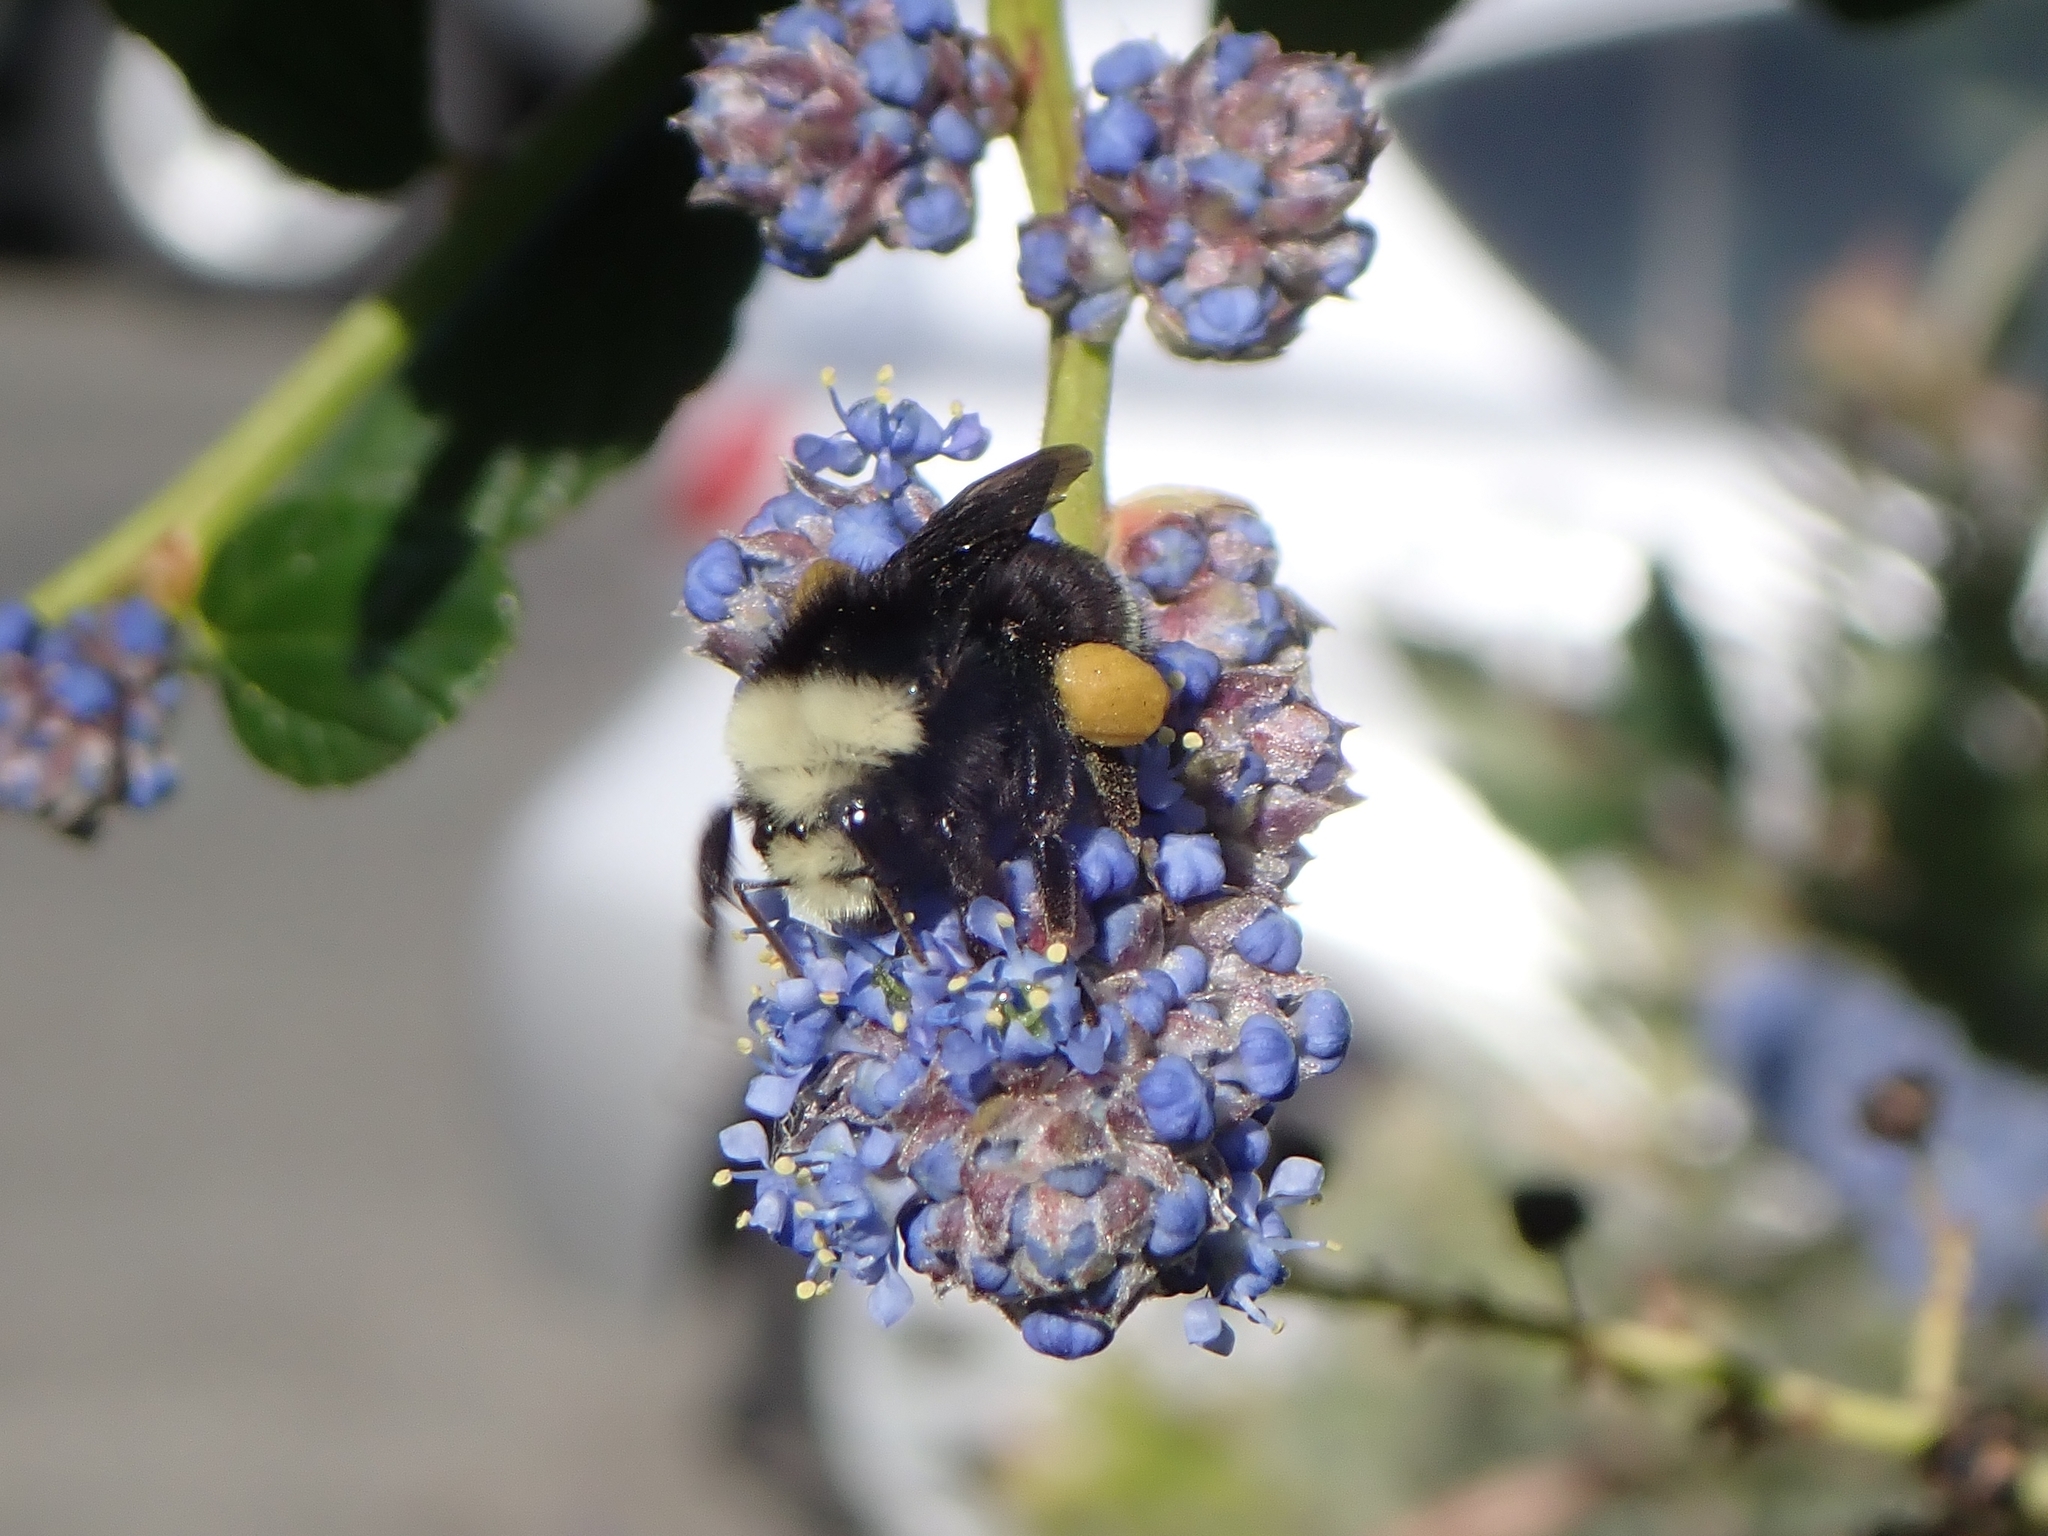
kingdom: Animalia
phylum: Arthropoda
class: Insecta
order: Hymenoptera
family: Apidae
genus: Bombus
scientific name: Bombus vosnesenskii
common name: Vosnesensky bumble bee
